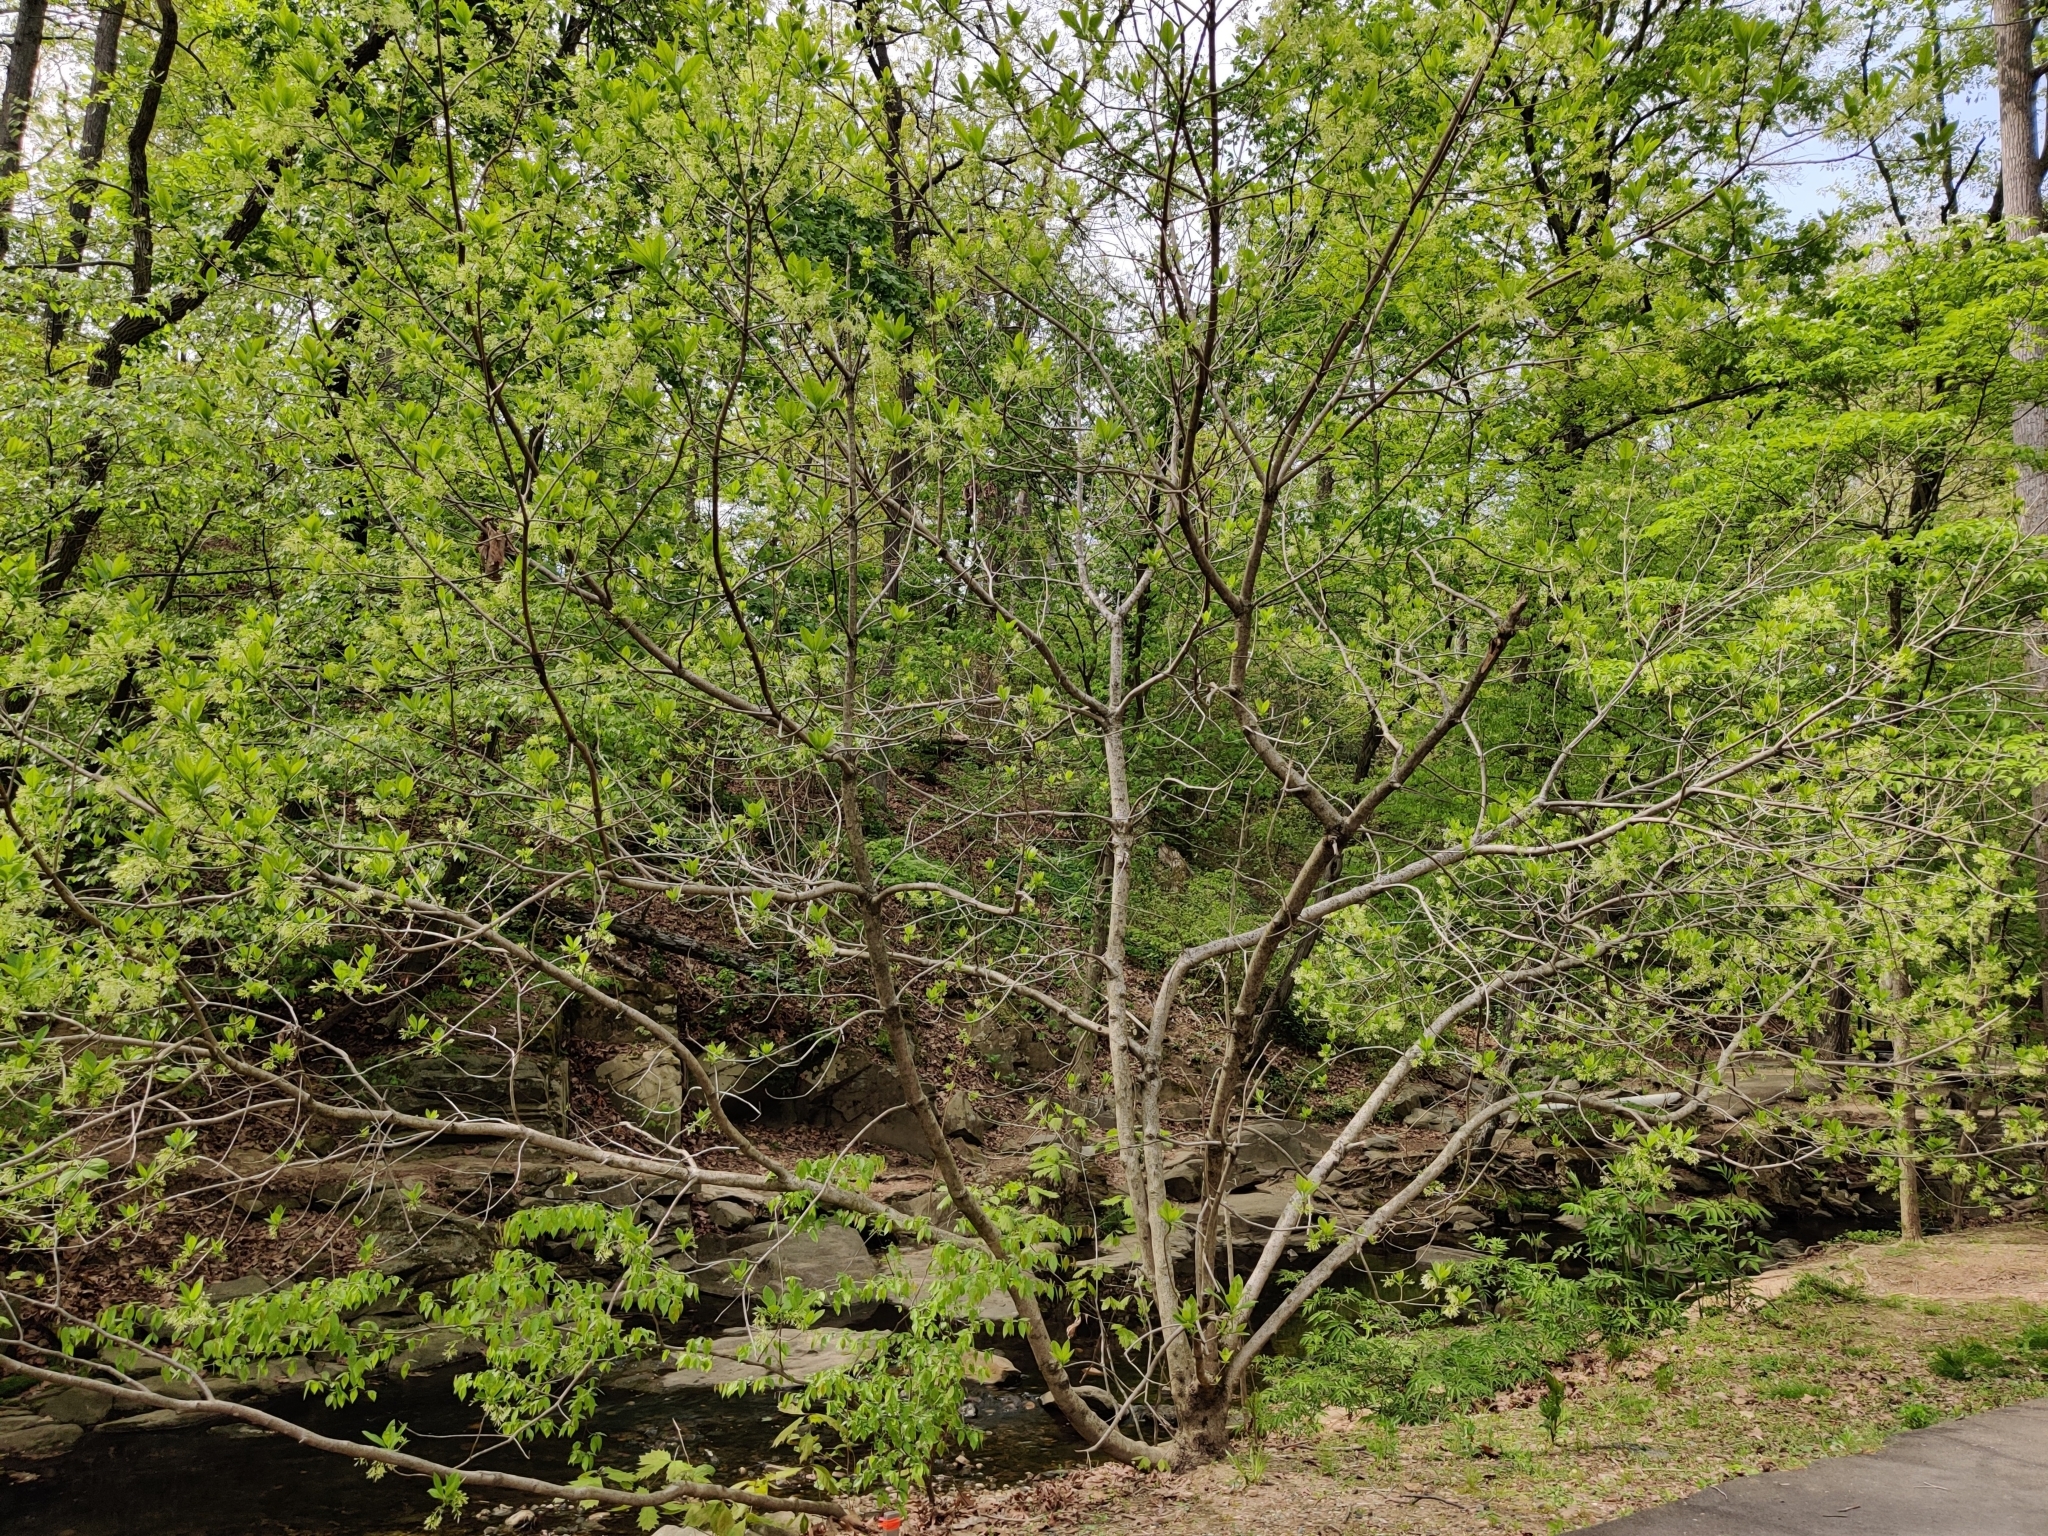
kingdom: Plantae
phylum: Tracheophyta
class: Magnoliopsida
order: Lamiales
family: Oleaceae
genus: Chionanthus
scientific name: Chionanthus virginicus
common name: American fringetree
